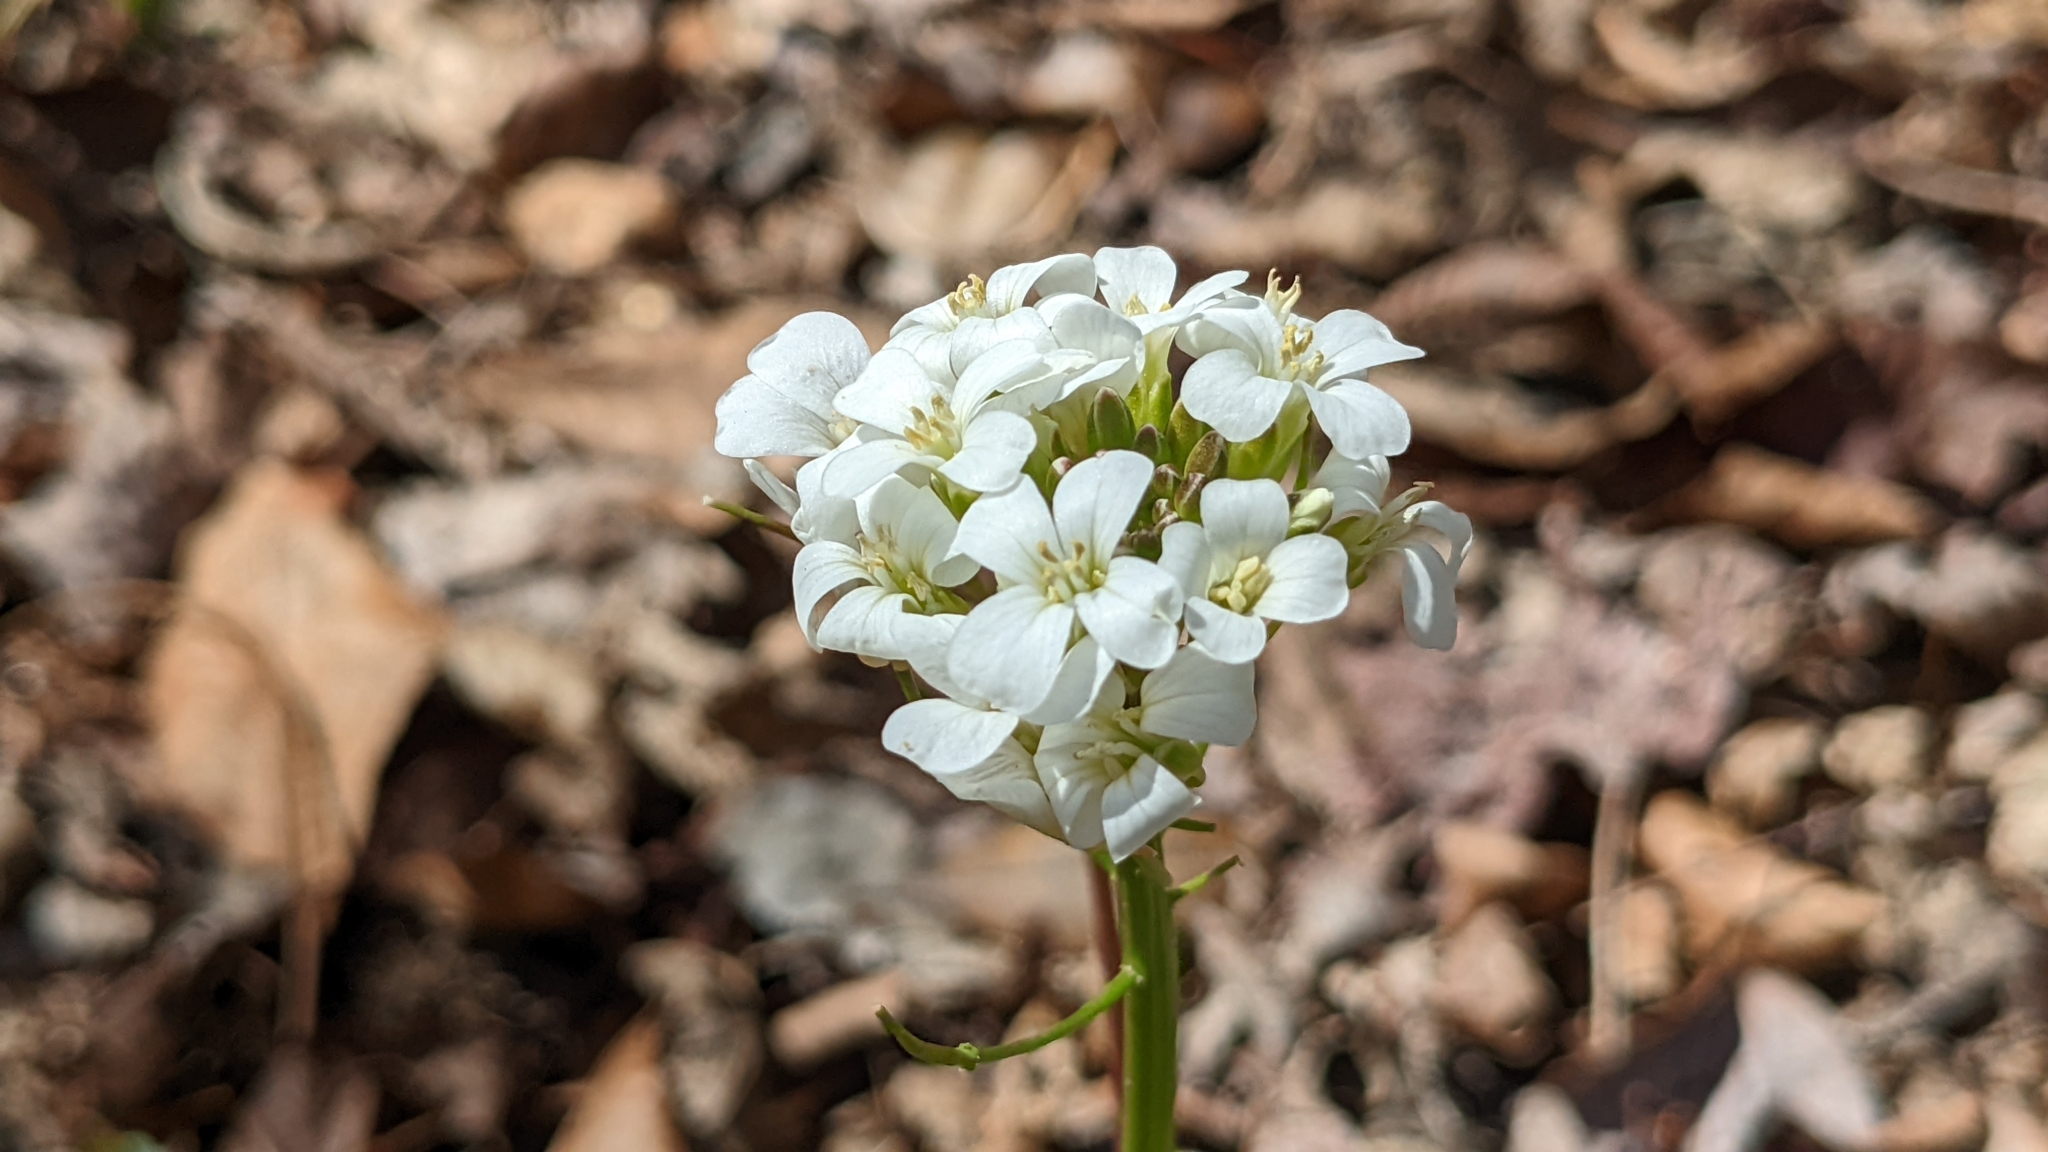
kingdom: Plantae
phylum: Tracheophyta
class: Magnoliopsida
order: Brassicales
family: Brassicaceae
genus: Cardamine
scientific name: Cardamine bulbosa
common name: Spring cress
